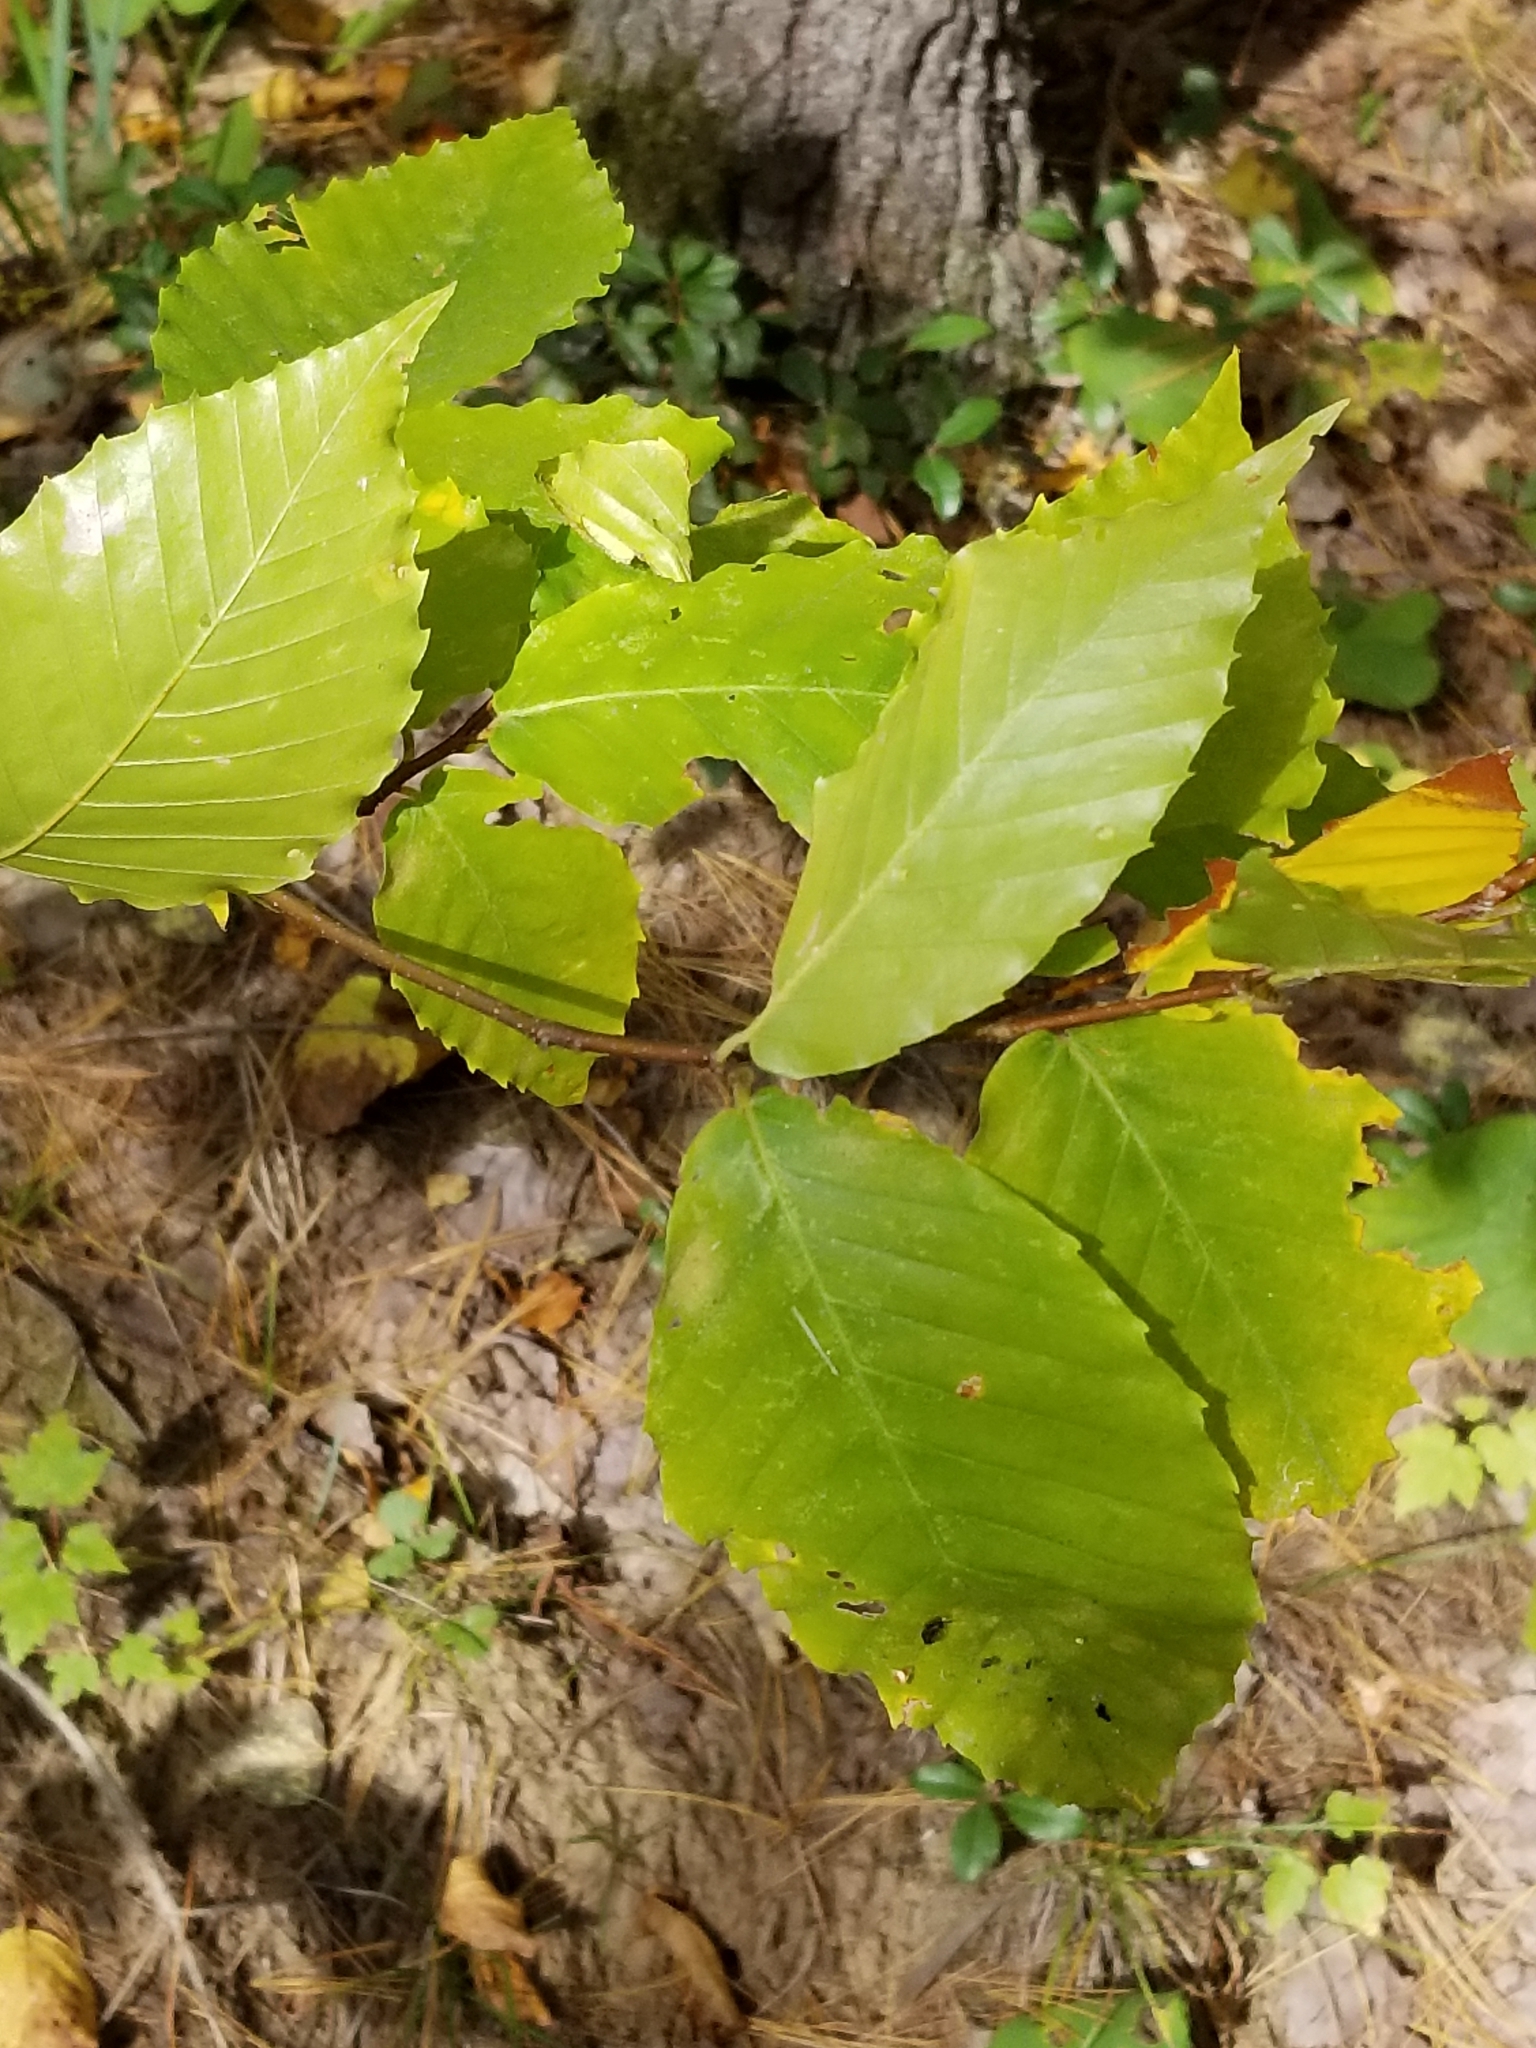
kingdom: Plantae
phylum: Tracheophyta
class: Magnoliopsida
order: Fagales
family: Fagaceae
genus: Fagus
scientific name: Fagus grandifolia
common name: American beech
